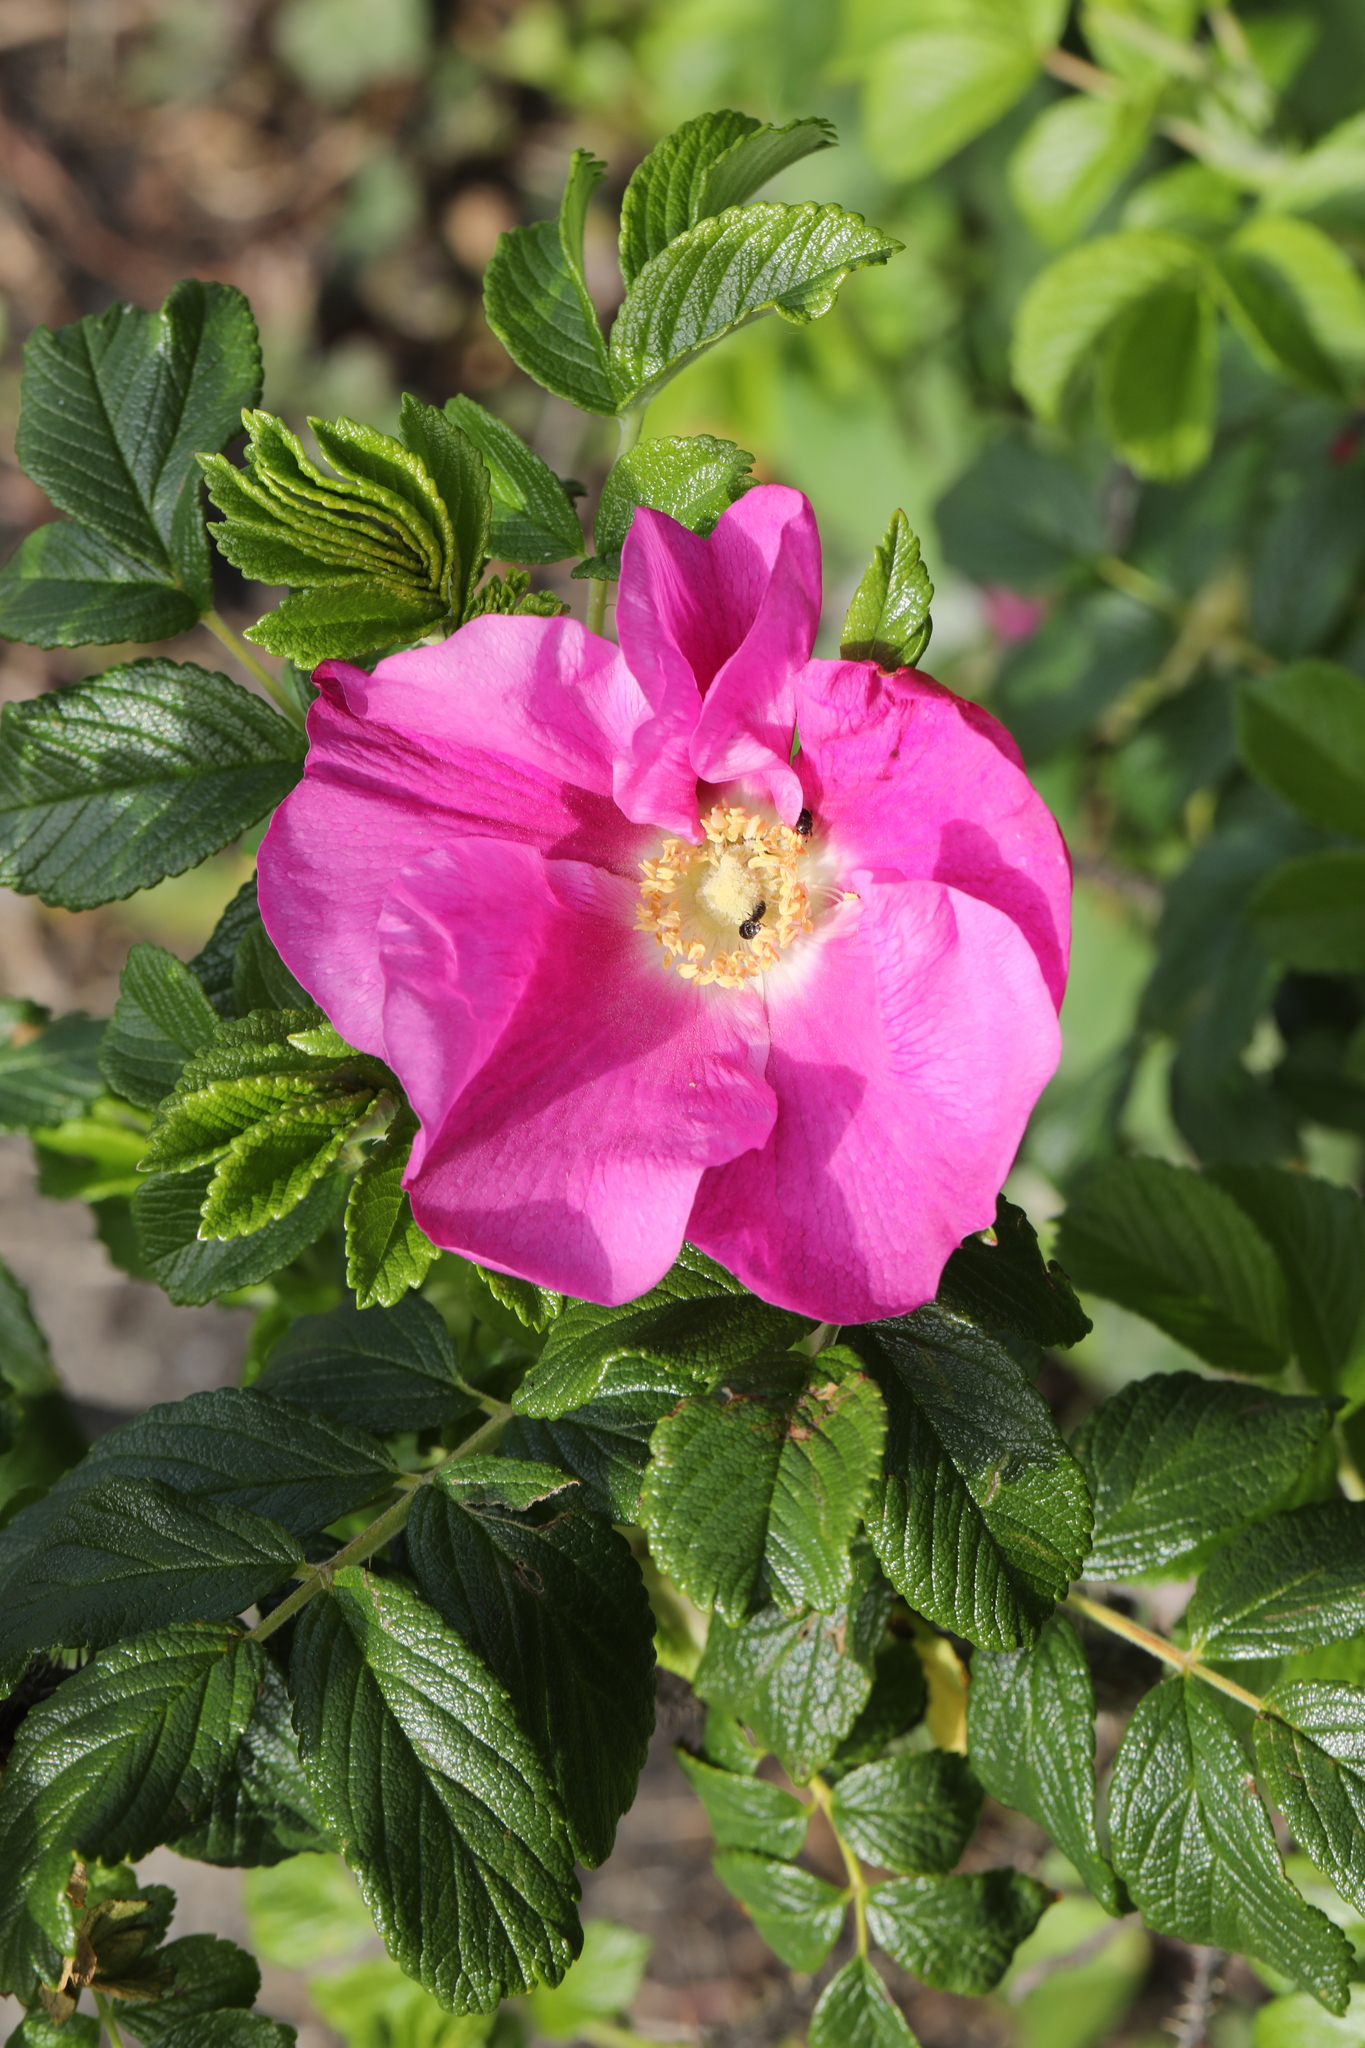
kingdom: Plantae
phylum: Tracheophyta
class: Magnoliopsida
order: Rosales
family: Rosaceae
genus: Rosa
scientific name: Rosa rugosa
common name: Japanese rose
